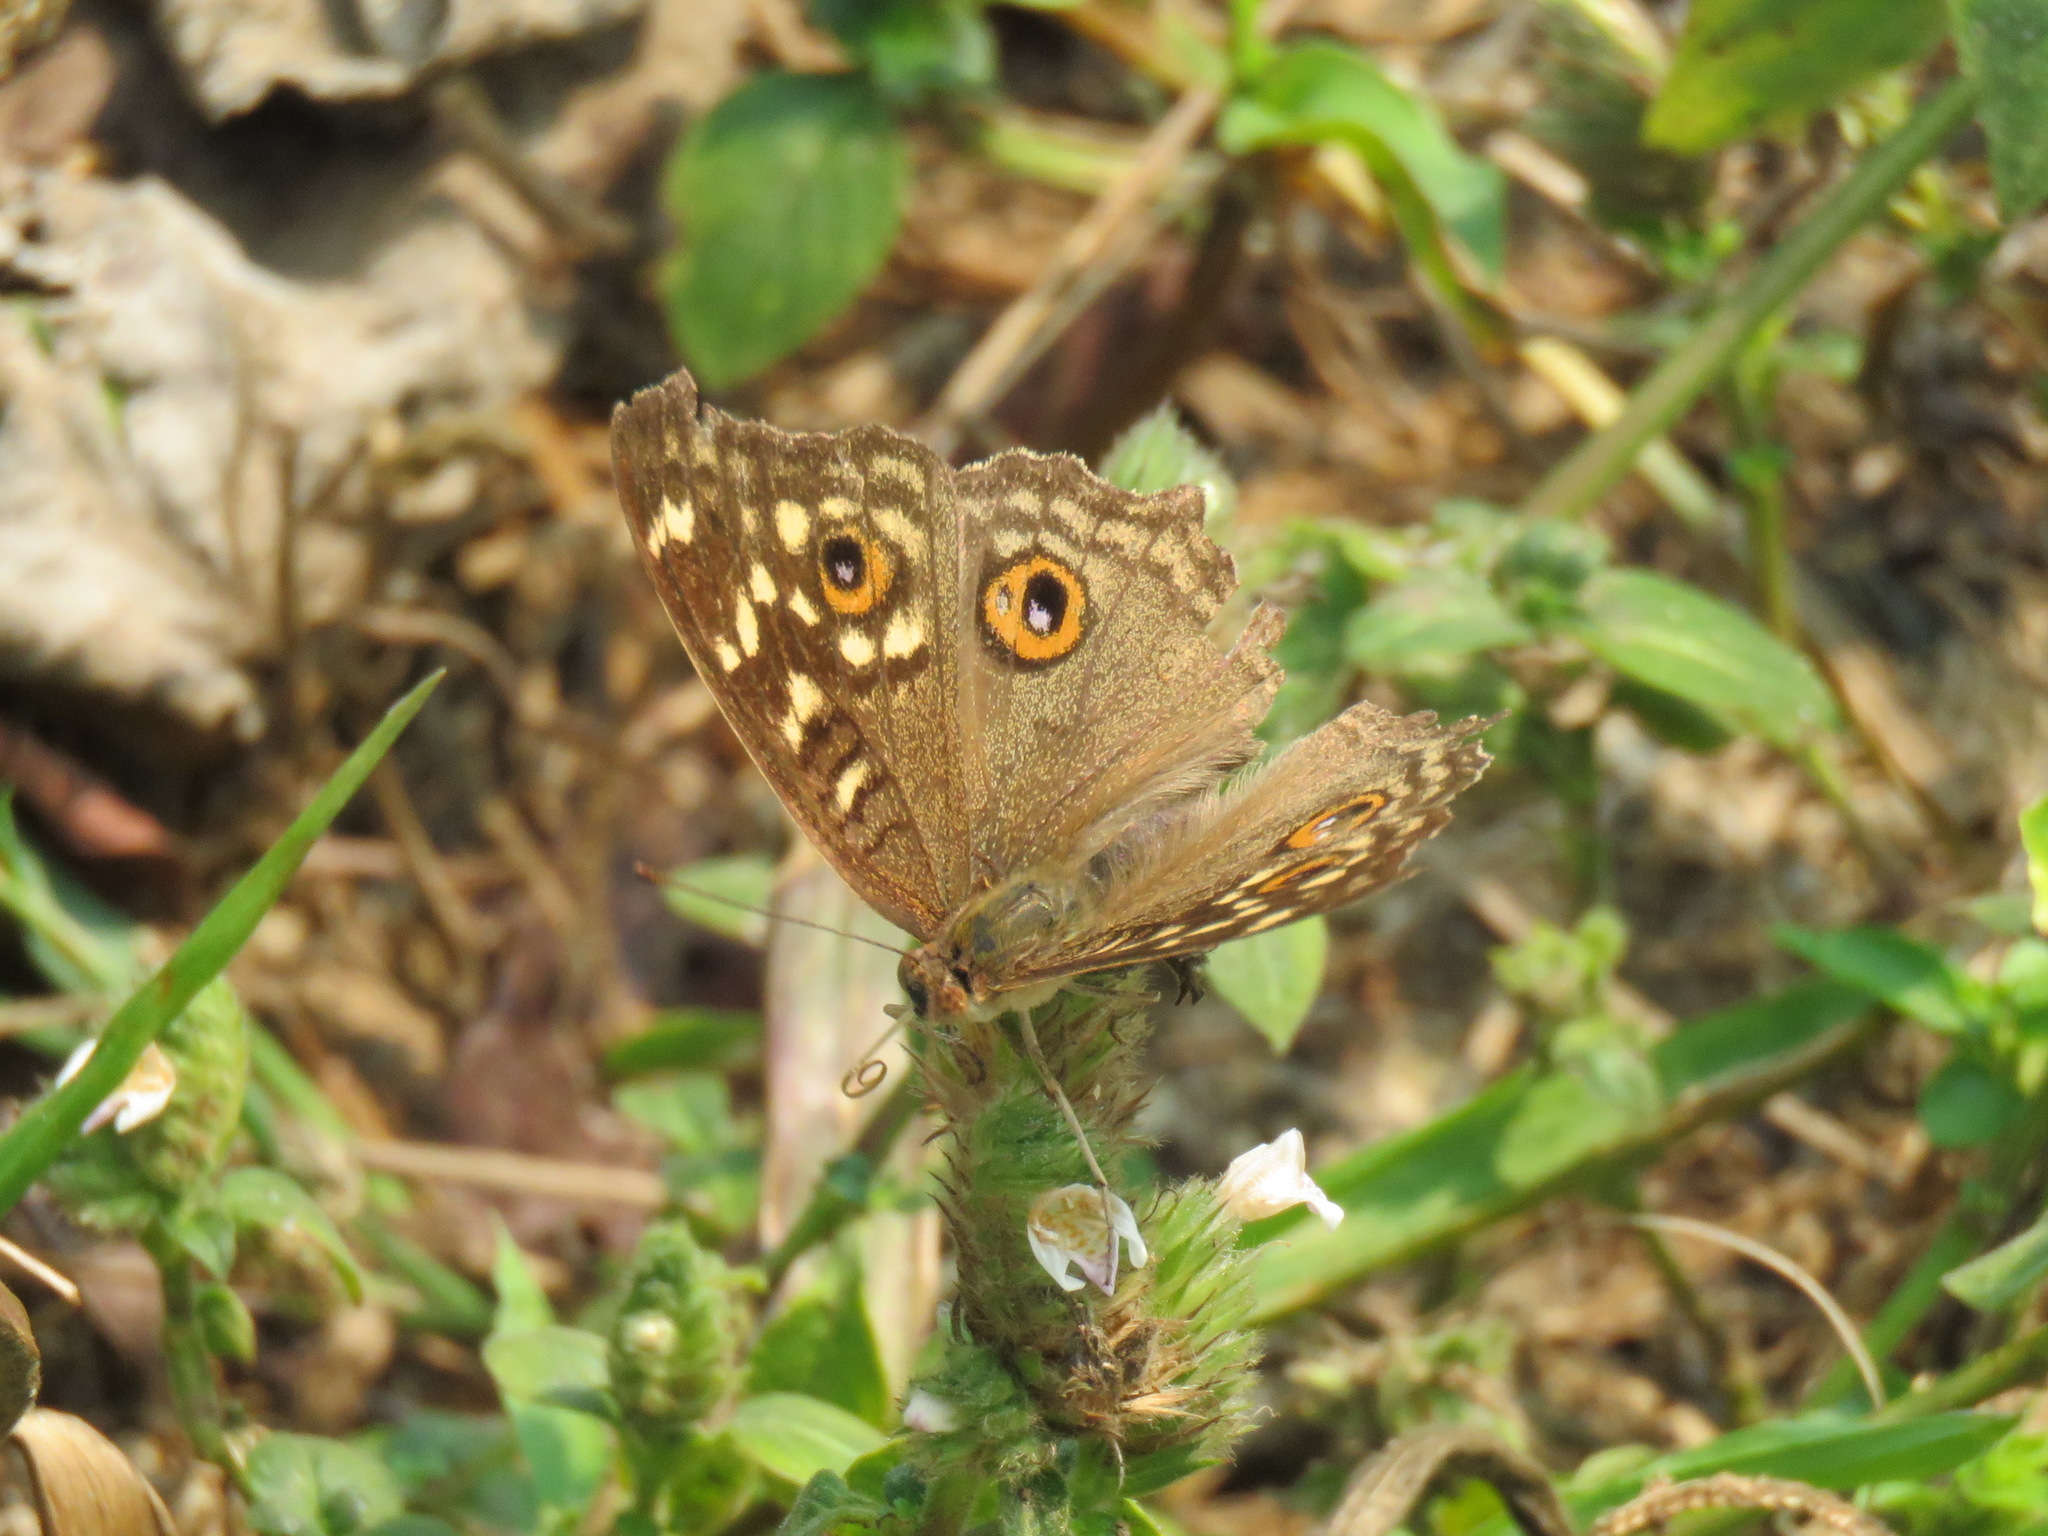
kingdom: Animalia
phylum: Arthropoda
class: Insecta
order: Lepidoptera
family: Nymphalidae
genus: Junonia
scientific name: Junonia lemonias
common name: Lemon pansy
